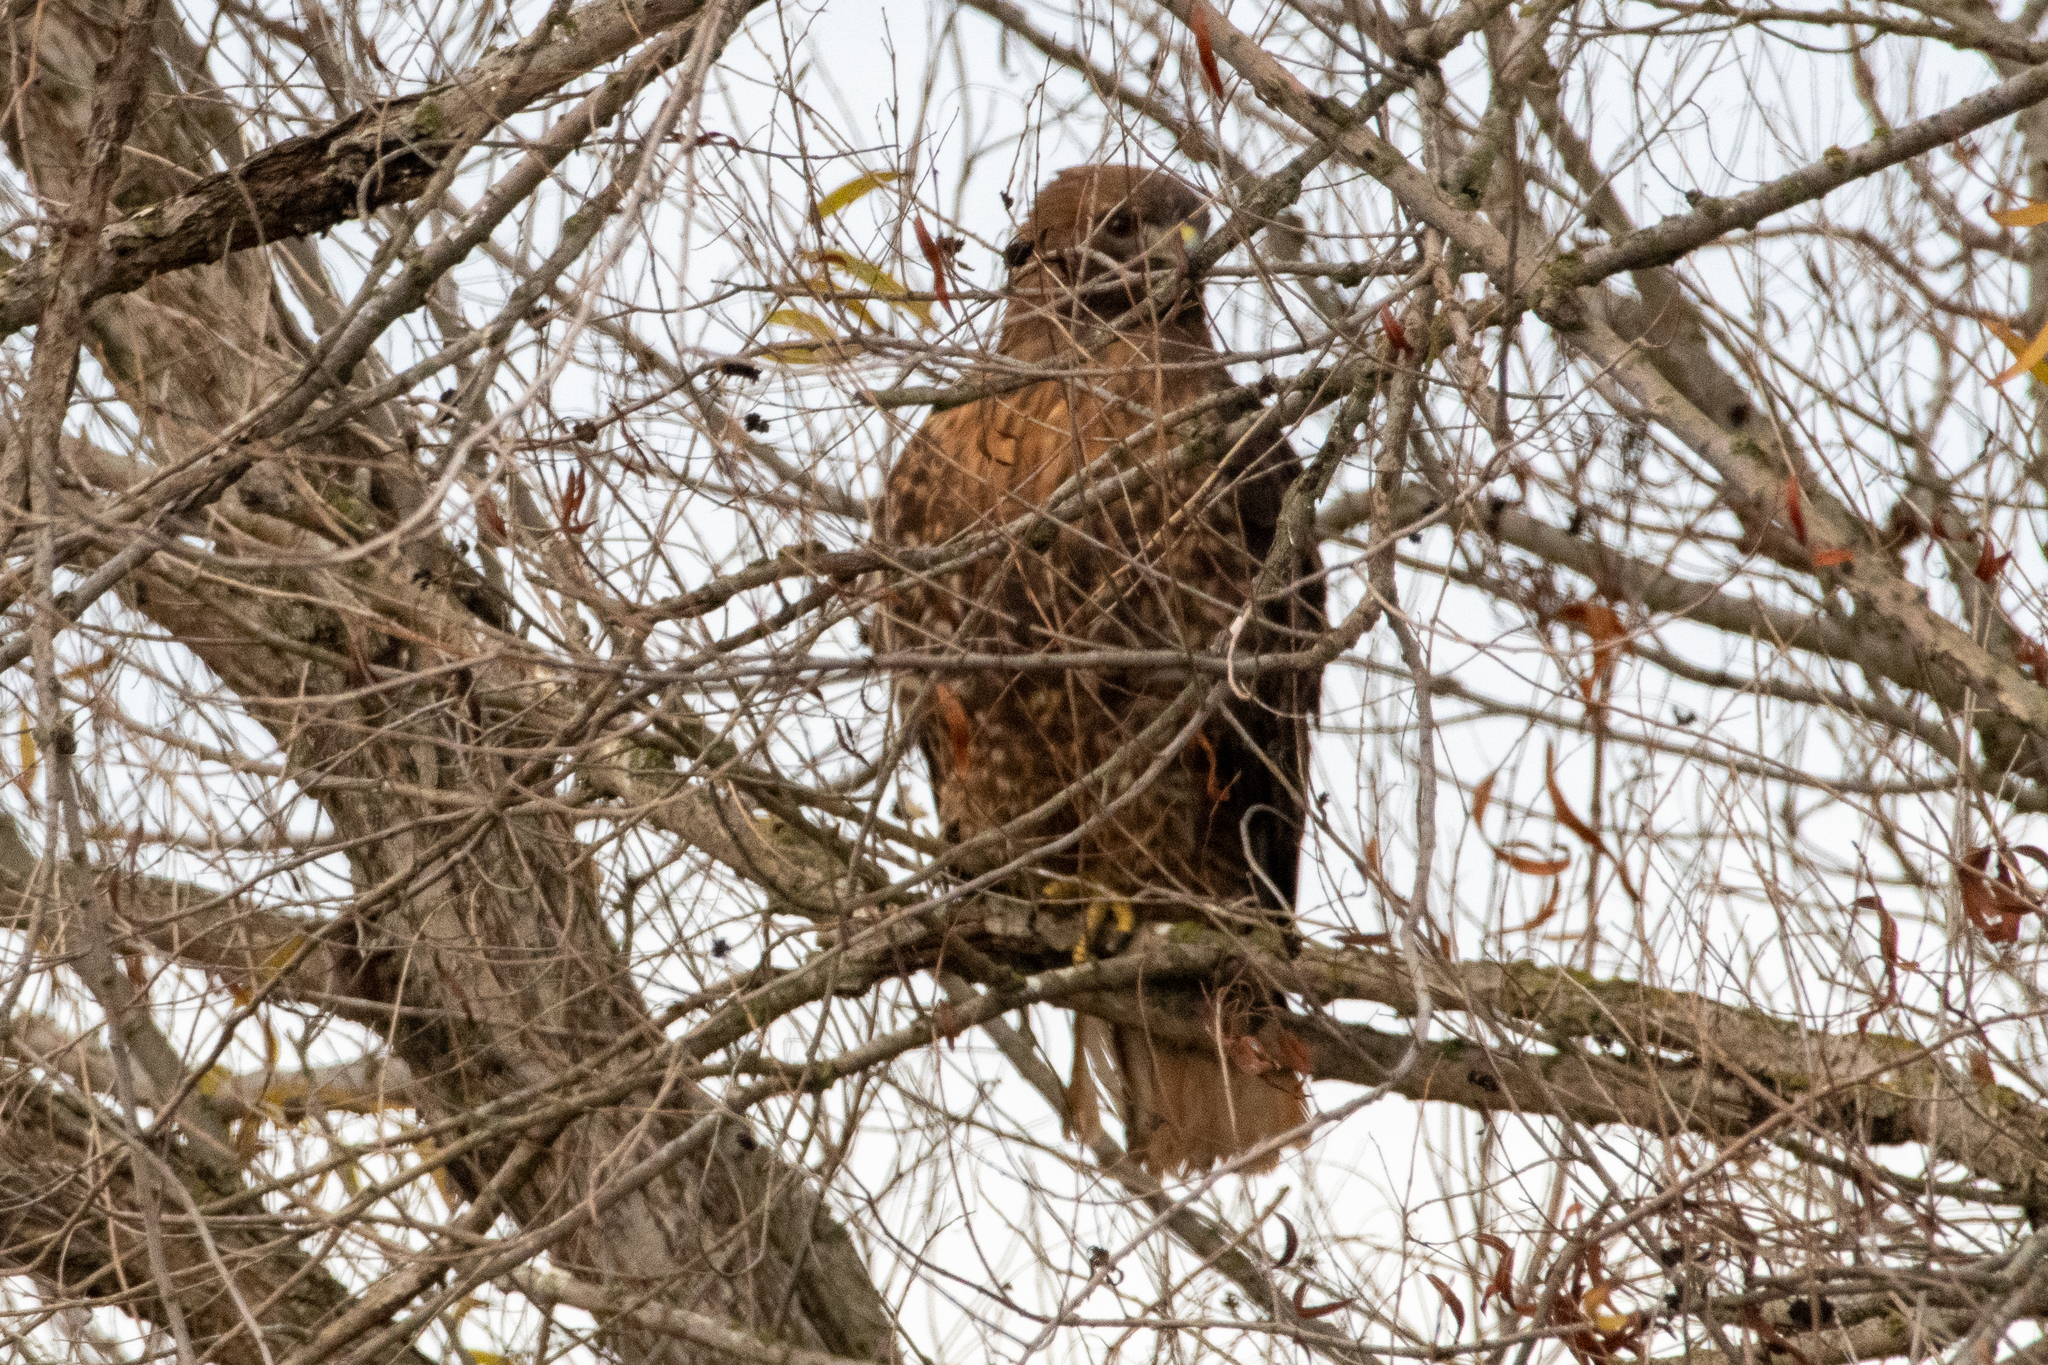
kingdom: Animalia
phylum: Chordata
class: Aves
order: Accipitriformes
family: Accipitridae
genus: Buteo
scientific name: Buteo jamaicensis
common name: Red-tailed hawk
